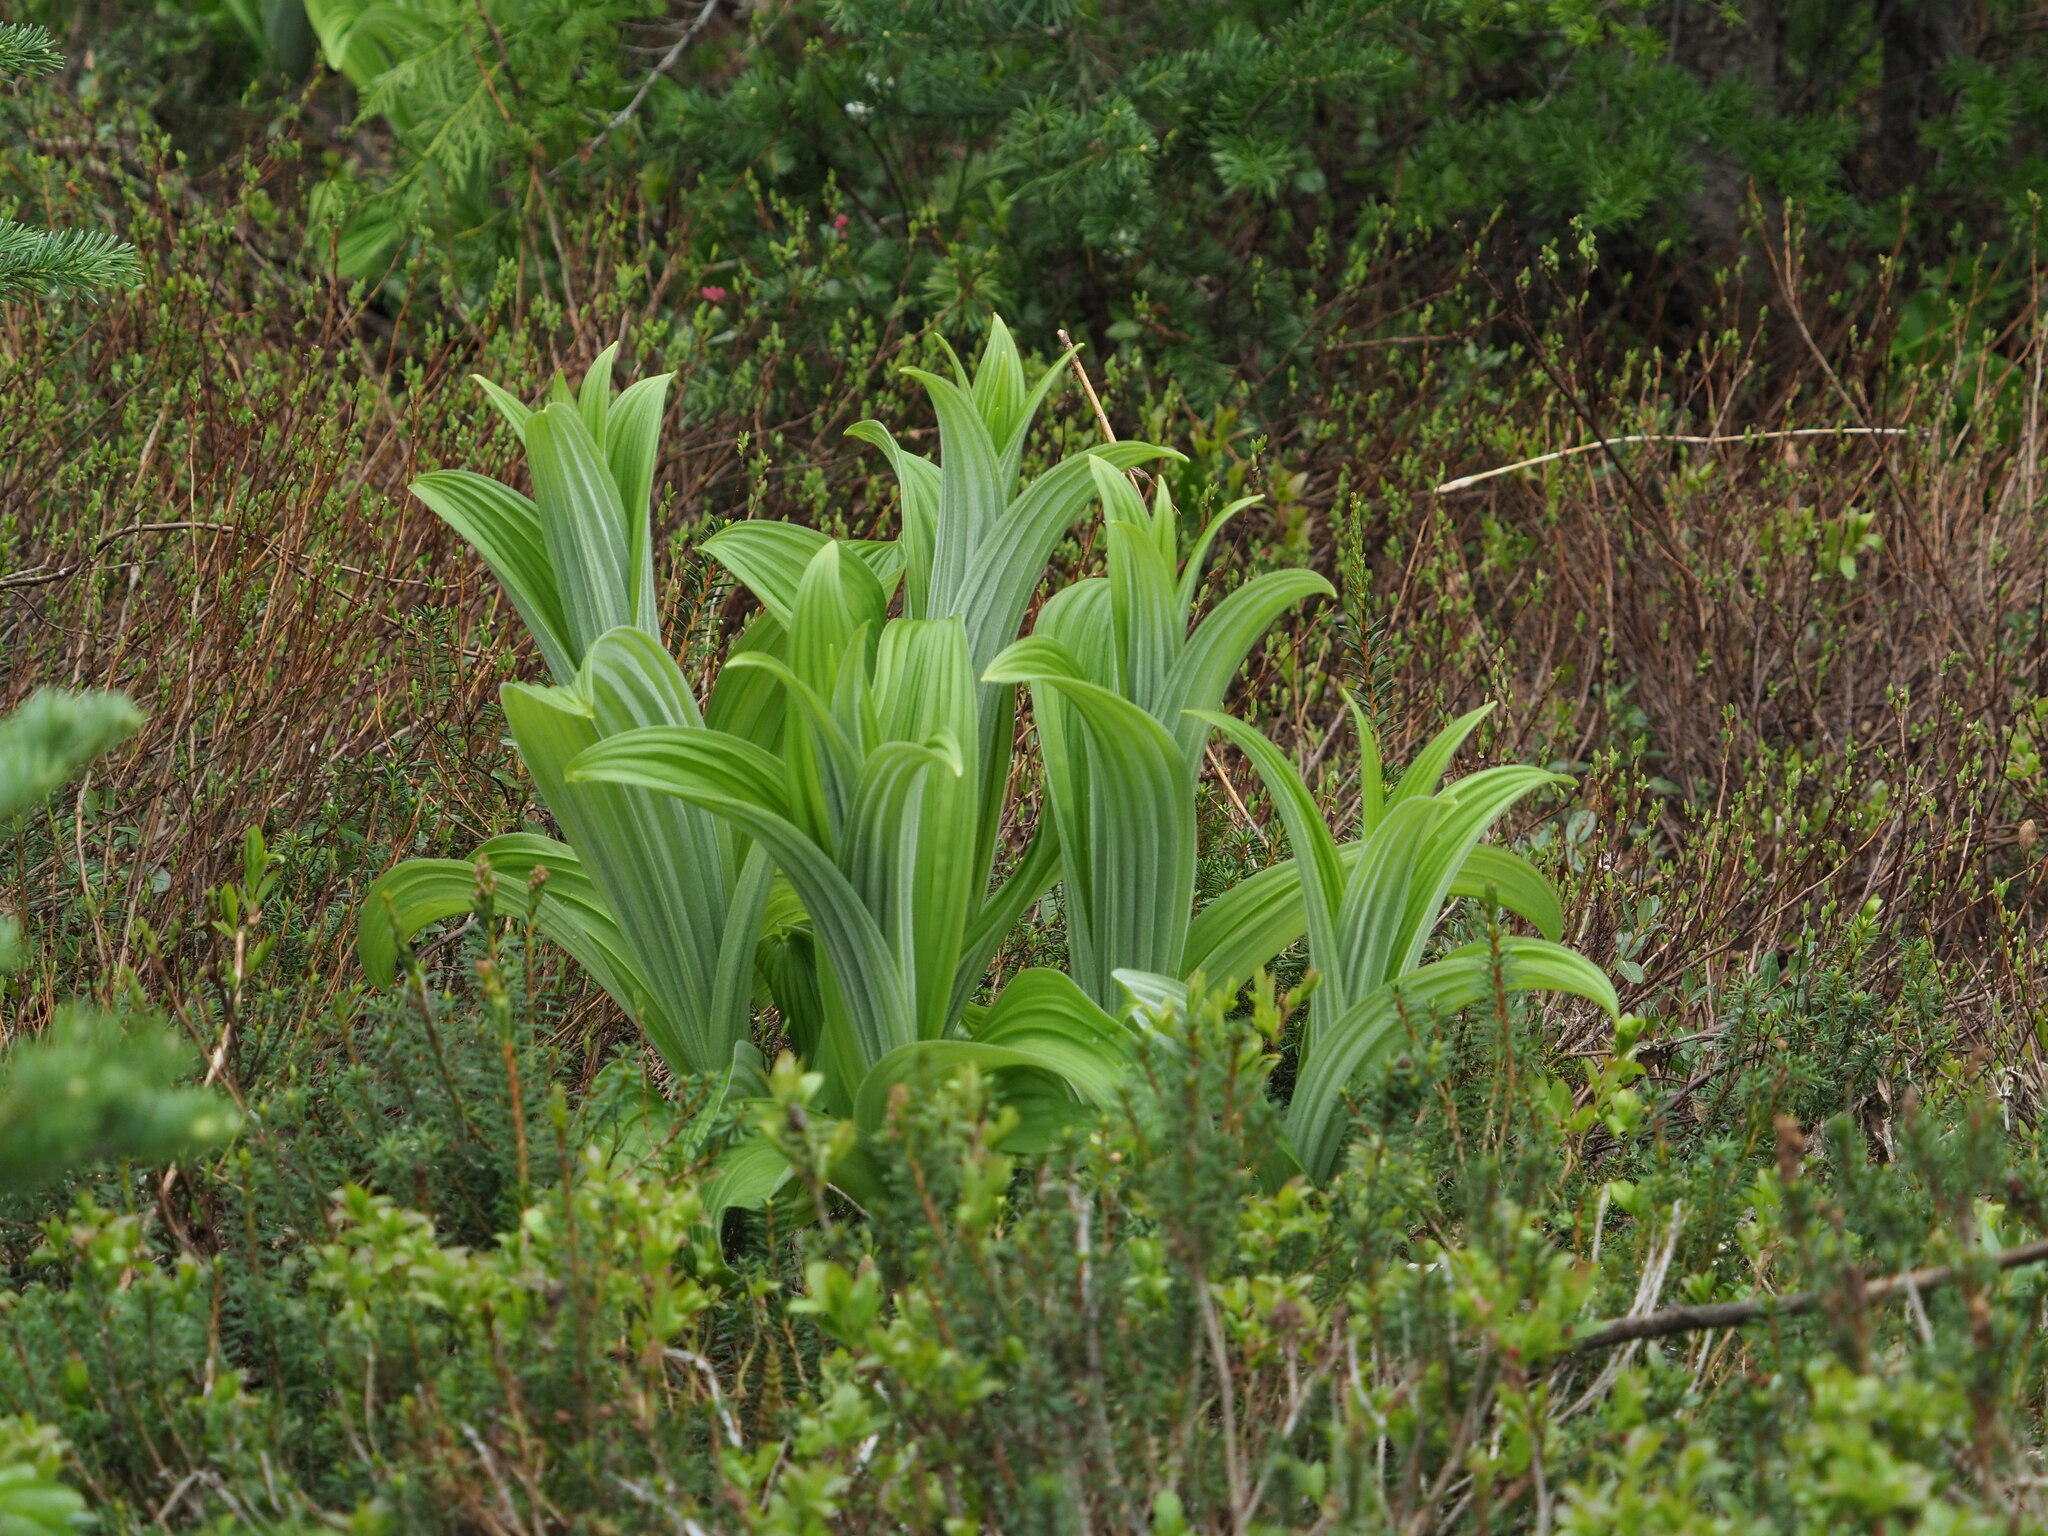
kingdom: Plantae
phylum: Tracheophyta
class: Liliopsida
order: Liliales
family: Melanthiaceae
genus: Veratrum
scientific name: Veratrum viride
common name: American false hellebore
